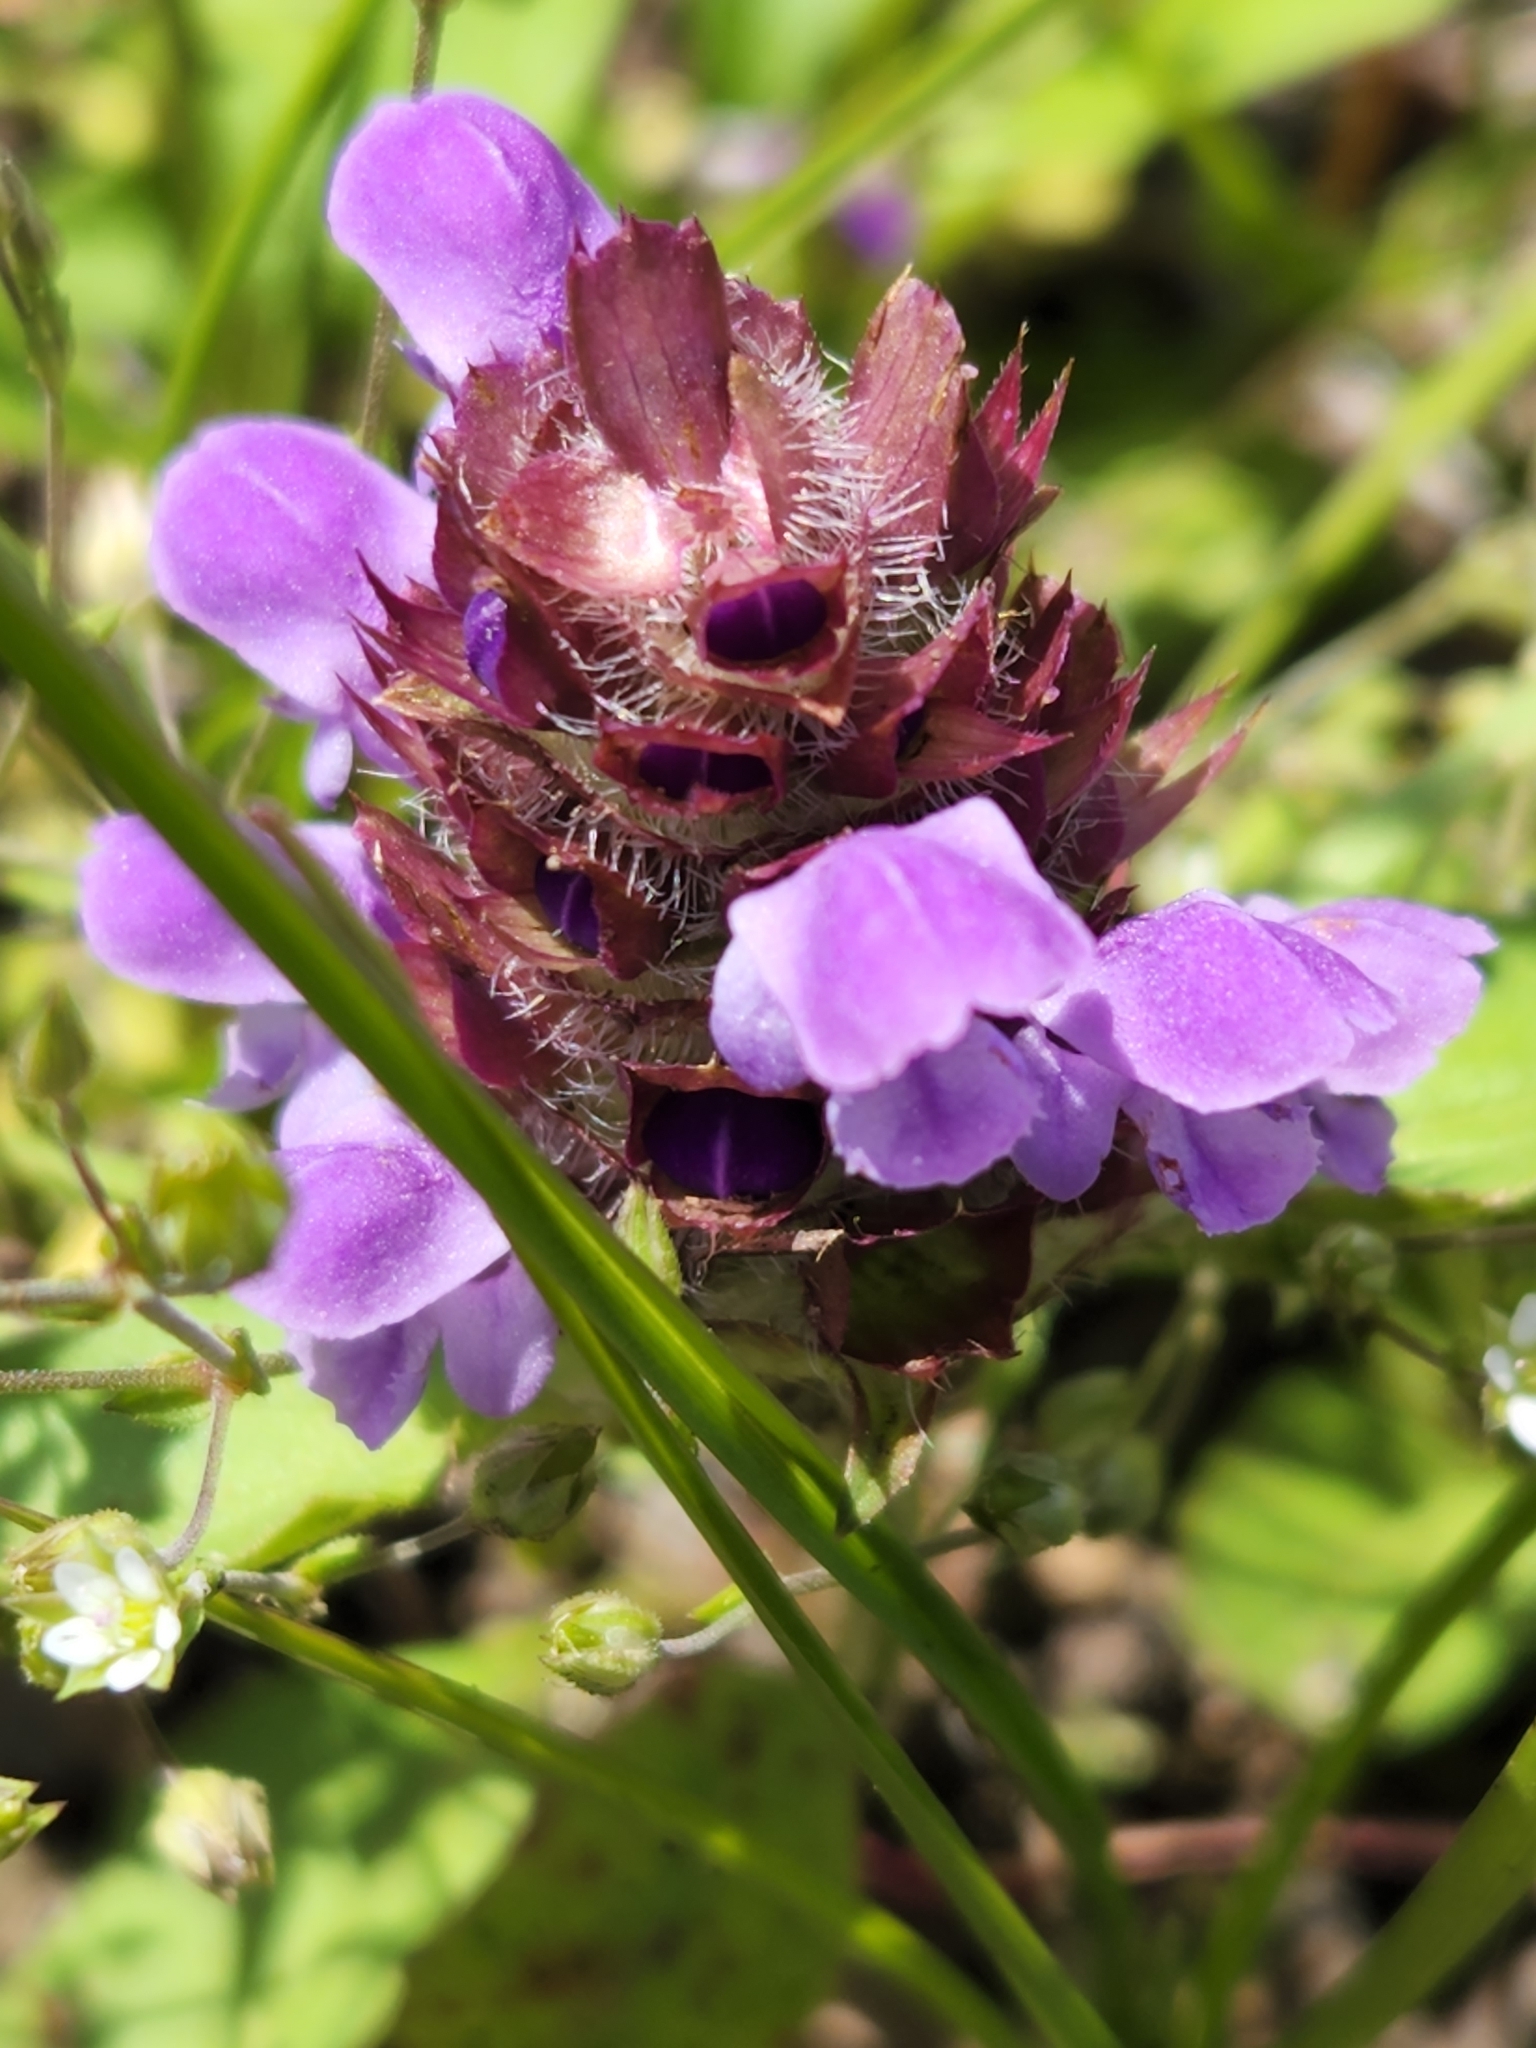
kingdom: Plantae
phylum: Tracheophyta
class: Magnoliopsida
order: Lamiales
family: Lamiaceae
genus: Prunella
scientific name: Prunella vulgaris
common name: Heal-all
